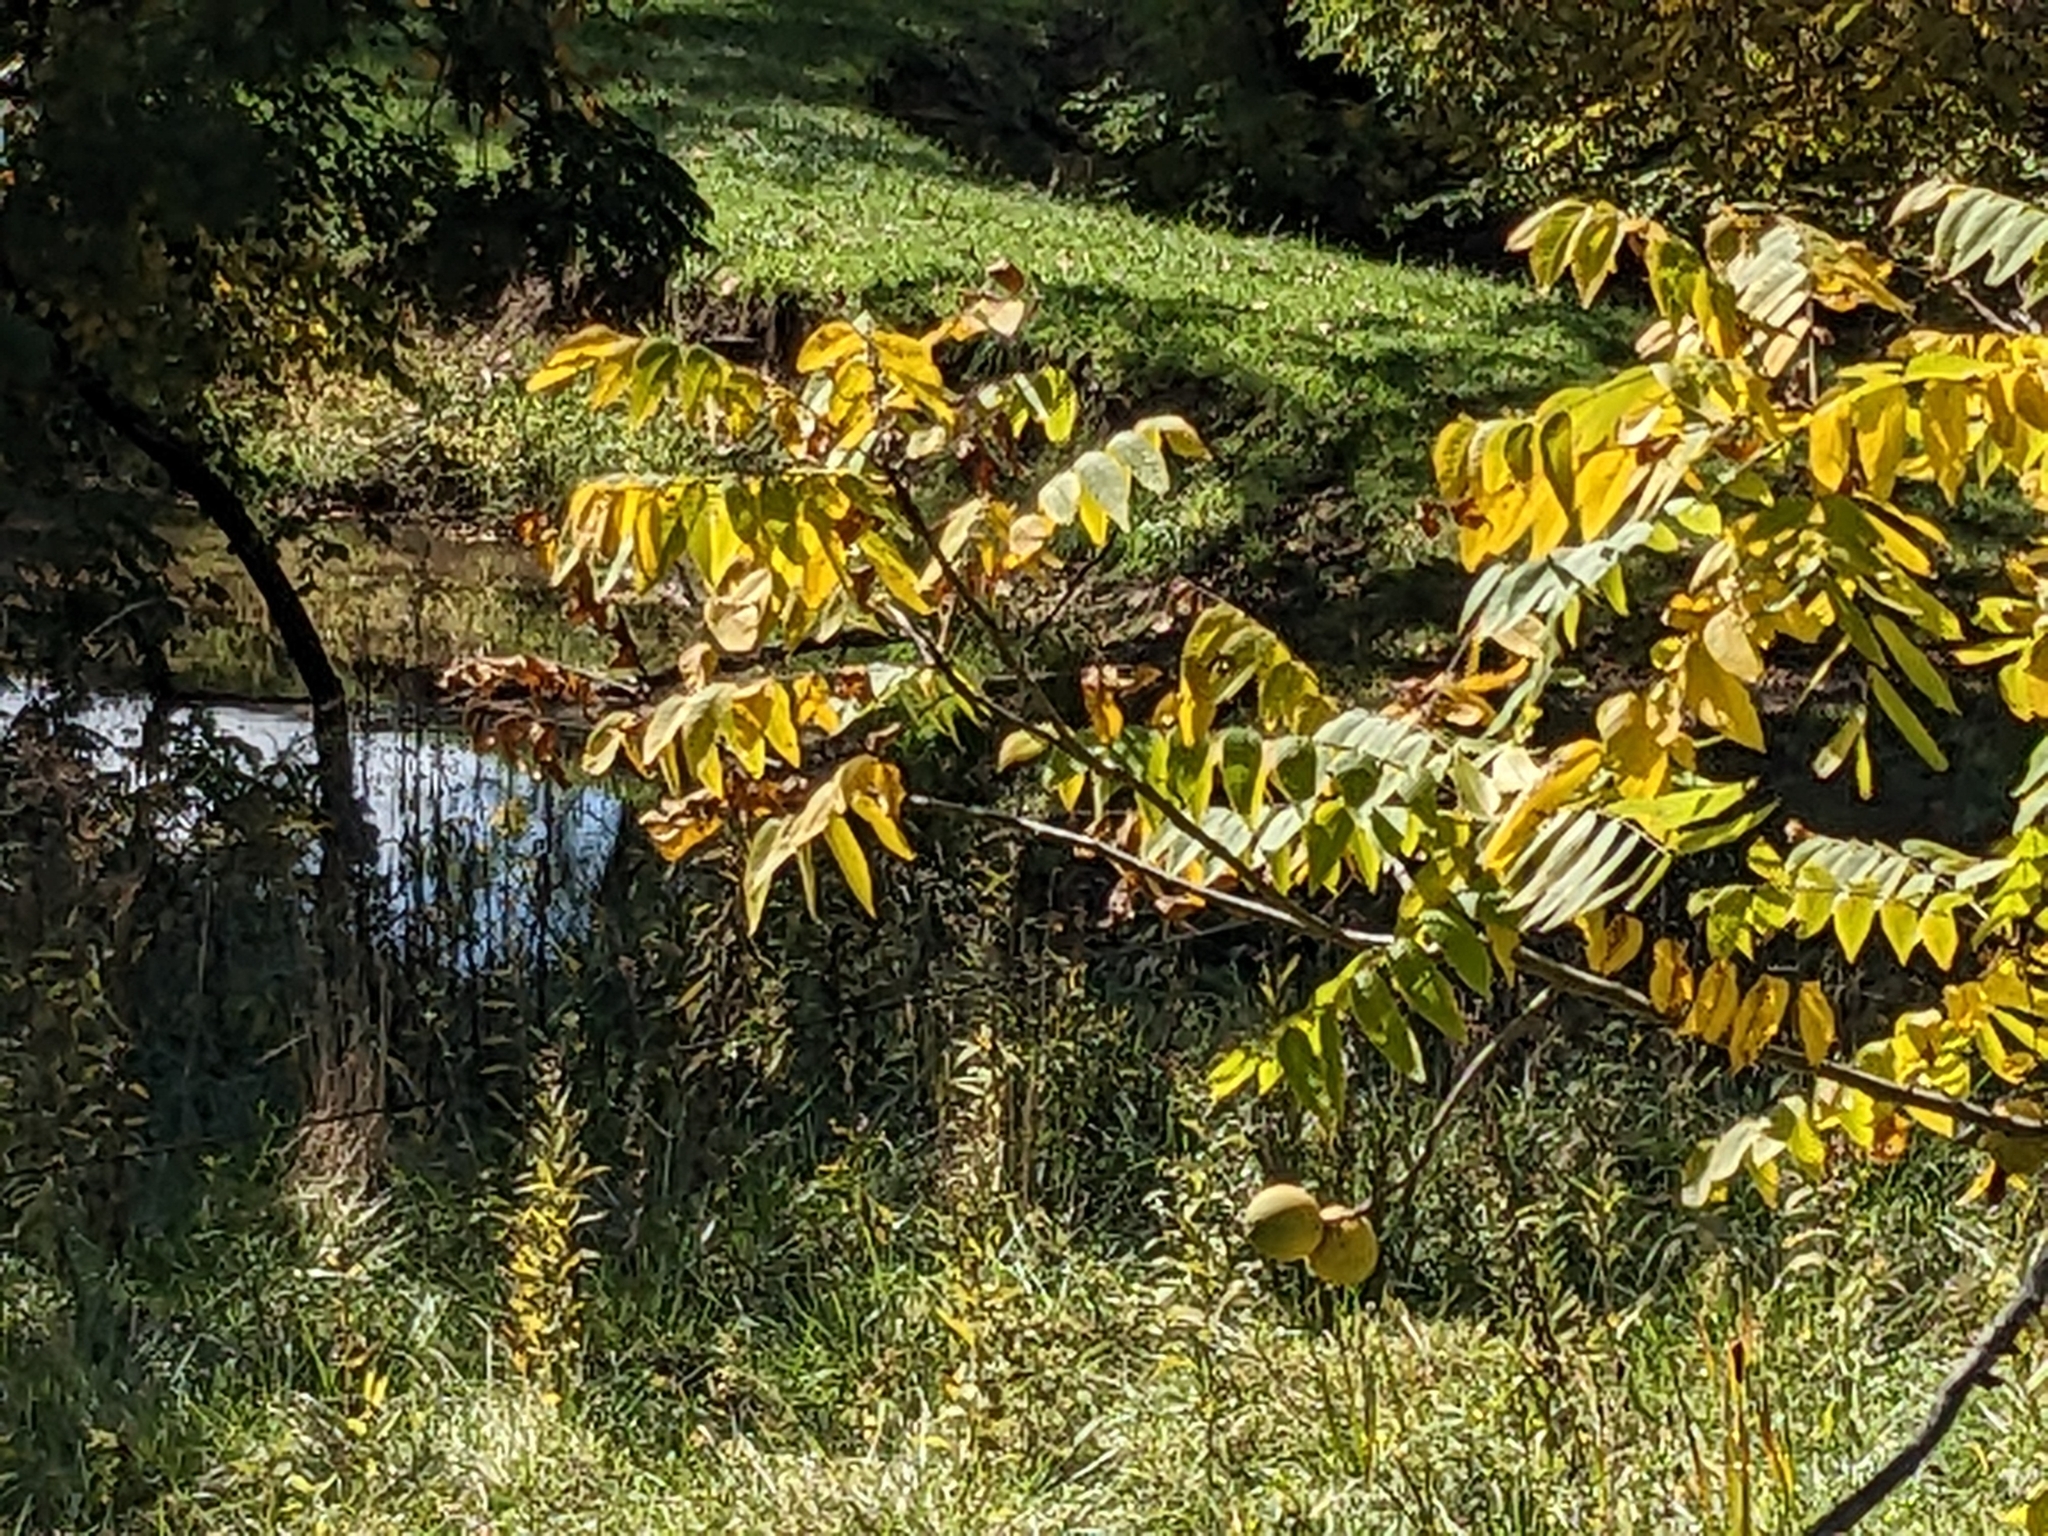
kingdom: Plantae
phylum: Tracheophyta
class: Magnoliopsida
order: Fagales
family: Juglandaceae
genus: Juglans
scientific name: Juglans nigra
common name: Black walnut
